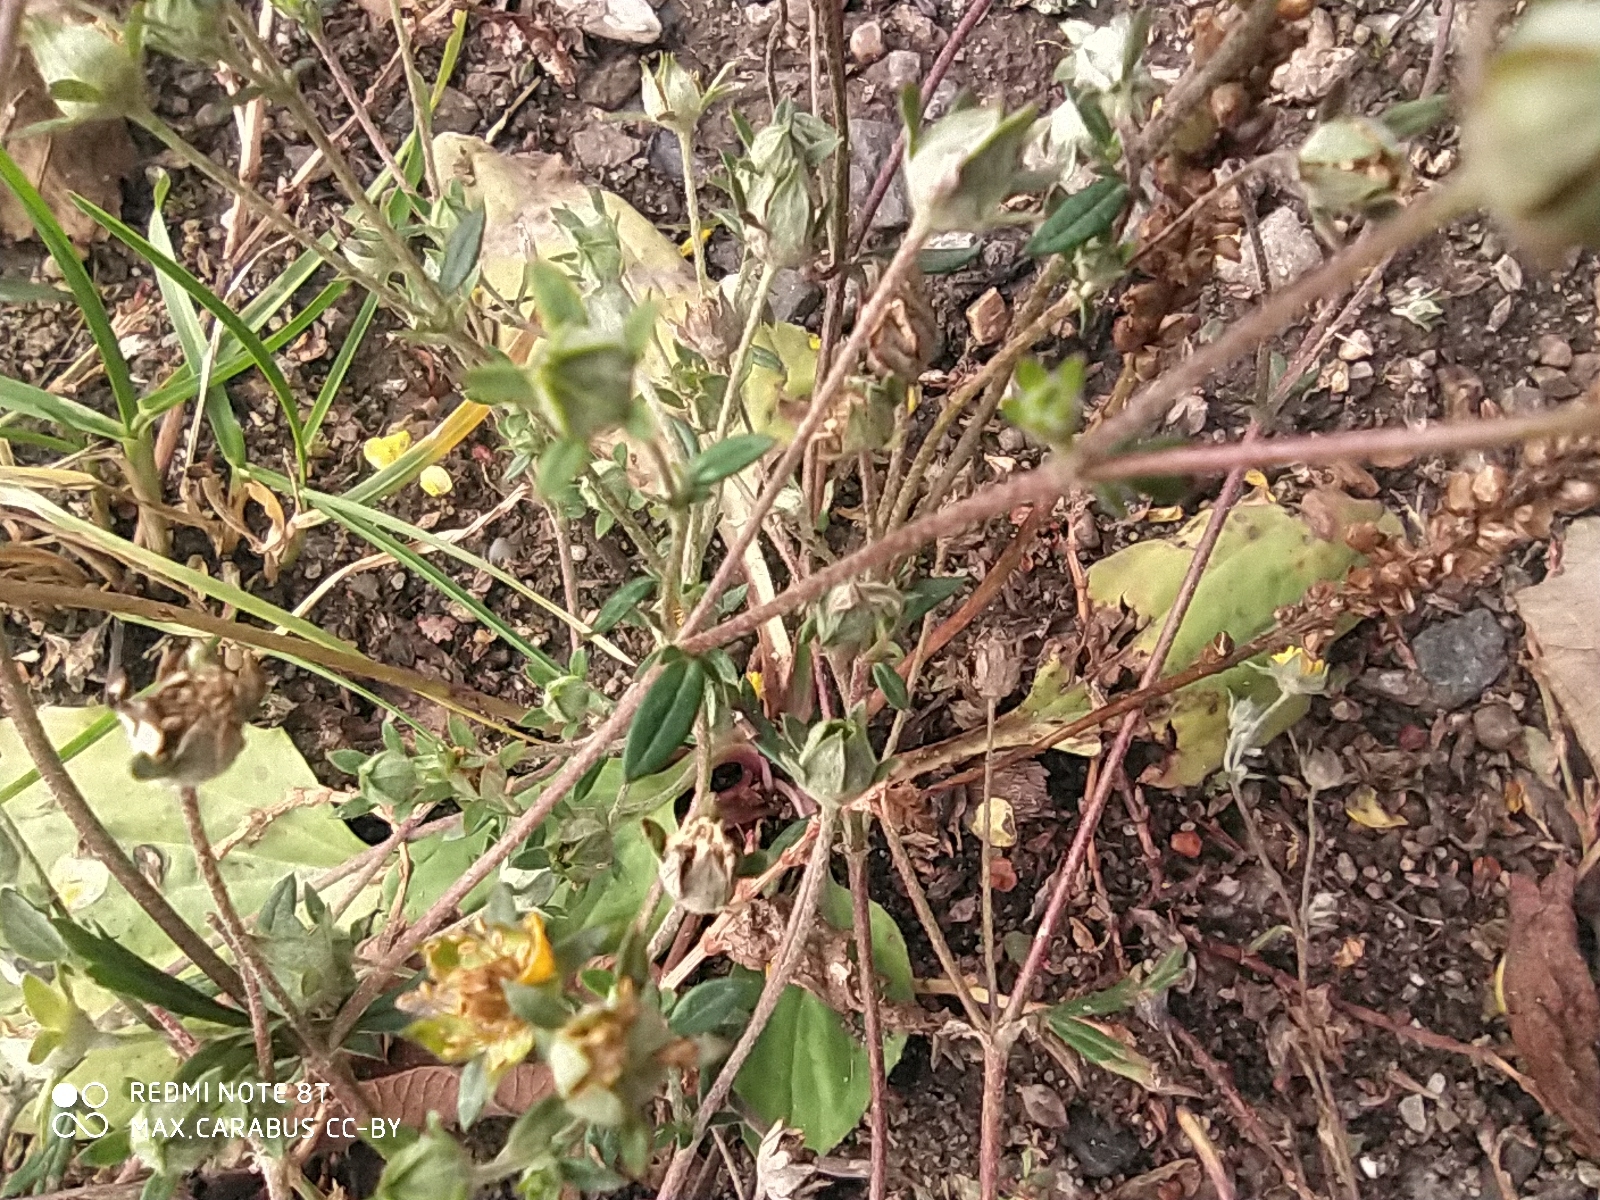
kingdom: Plantae
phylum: Tracheophyta
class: Magnoliopsida
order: Rosales
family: Rosaceae
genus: Potentilla
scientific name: Potentilla argentea
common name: Hoary cinquefoil
